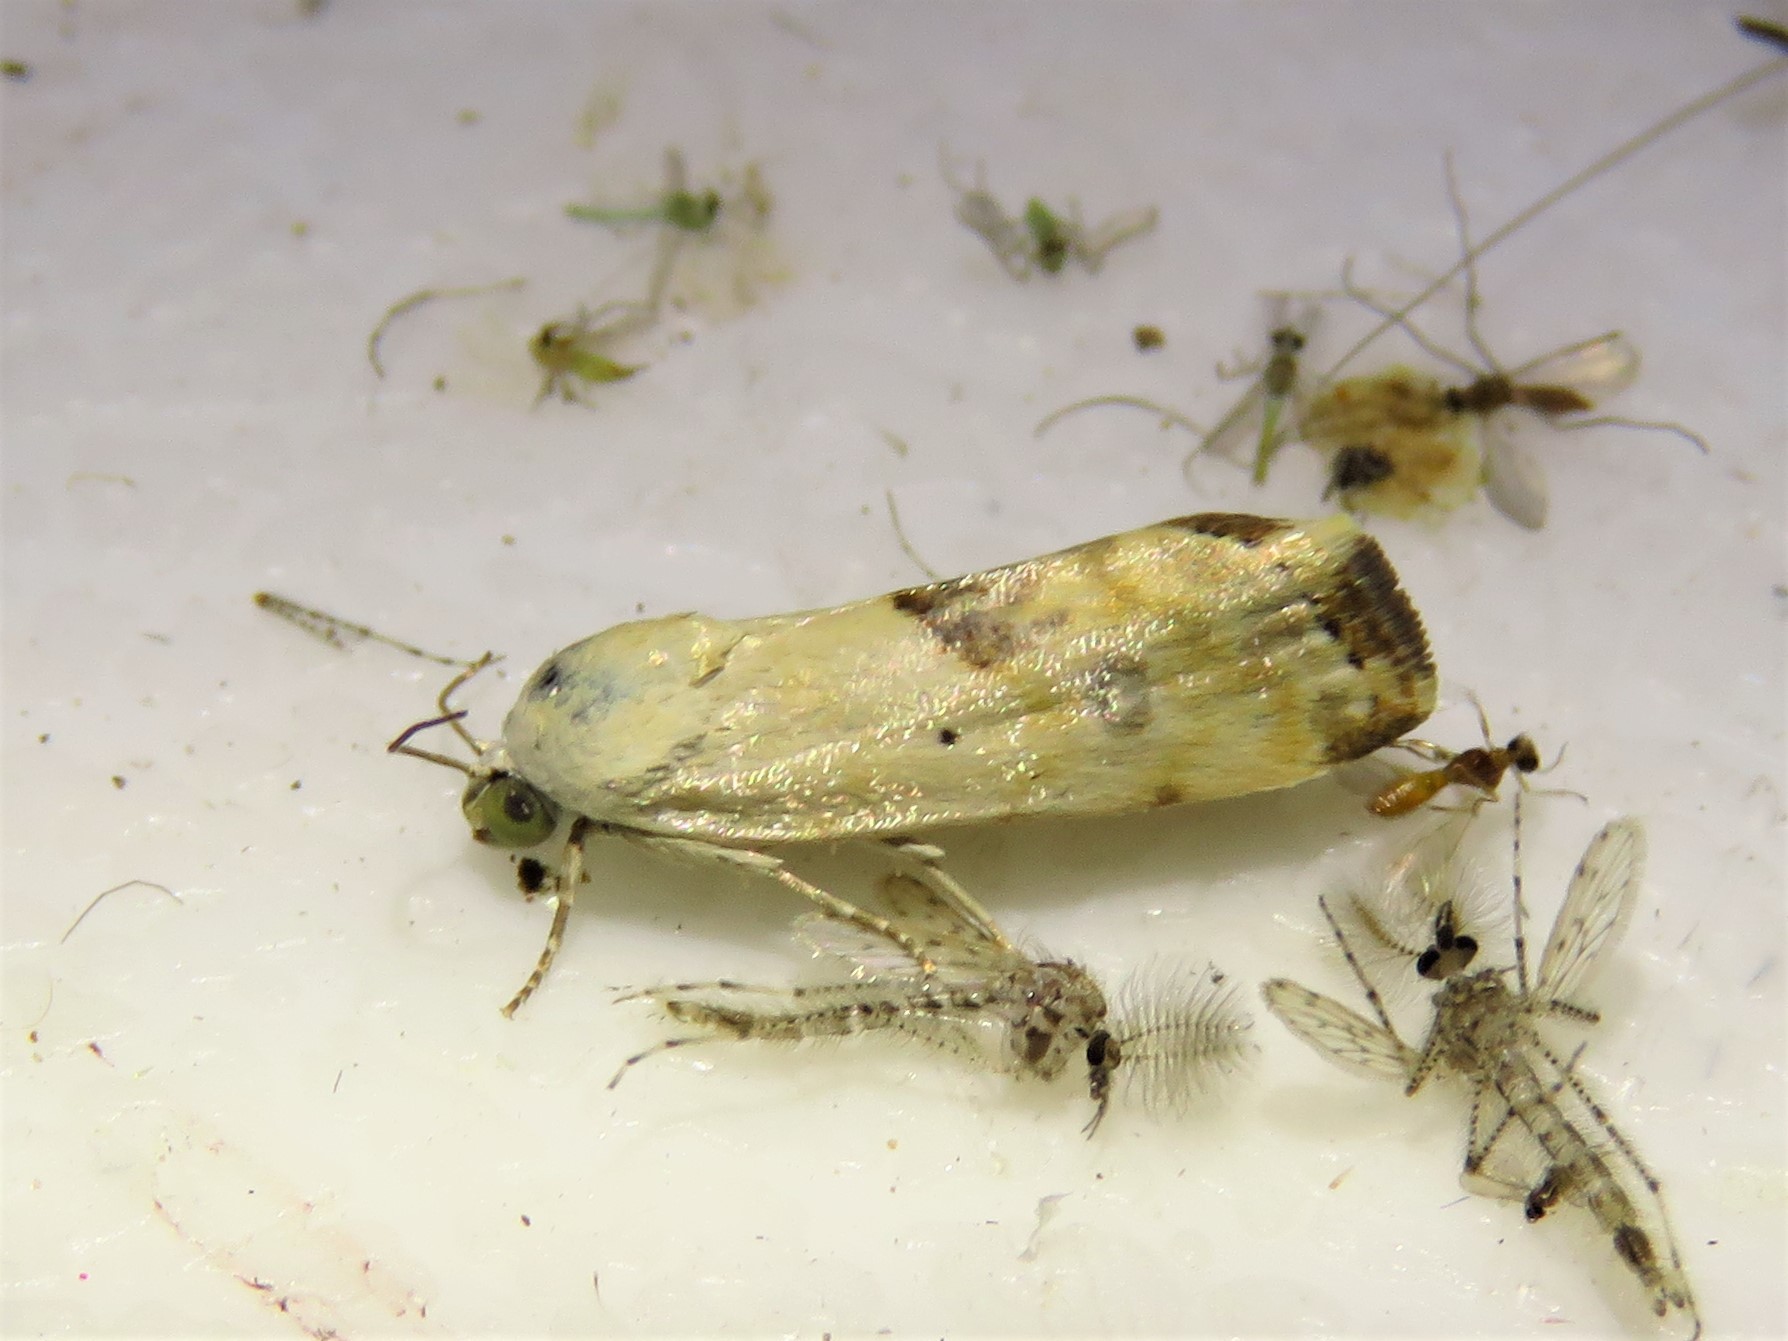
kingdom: Animalia
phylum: Arthropoda
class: Insecta
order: Lepidoptera
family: Noctuidae
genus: Acontia
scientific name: Acontia libedis
